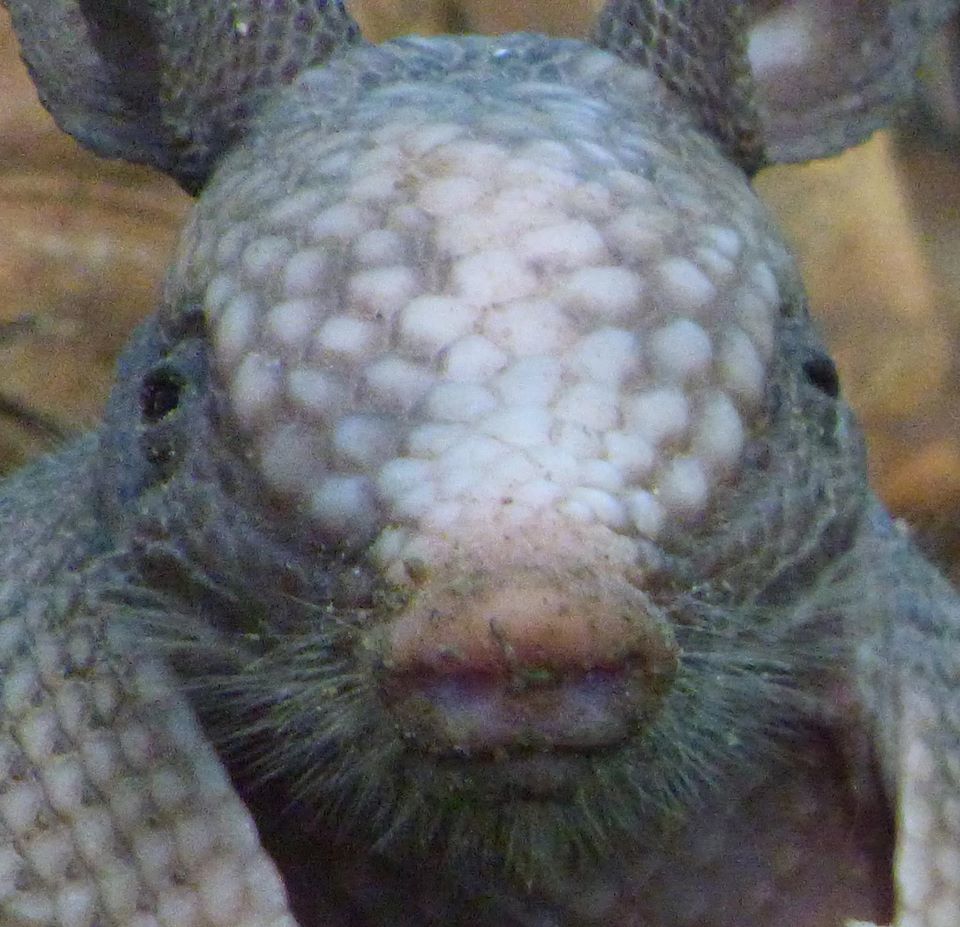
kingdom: Animalia
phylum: Chordata
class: Mammalia
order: Cingulata
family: Dasypodidae
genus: Dasypus
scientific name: Dasypus novemcinctus
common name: Nine-banded armadillo
